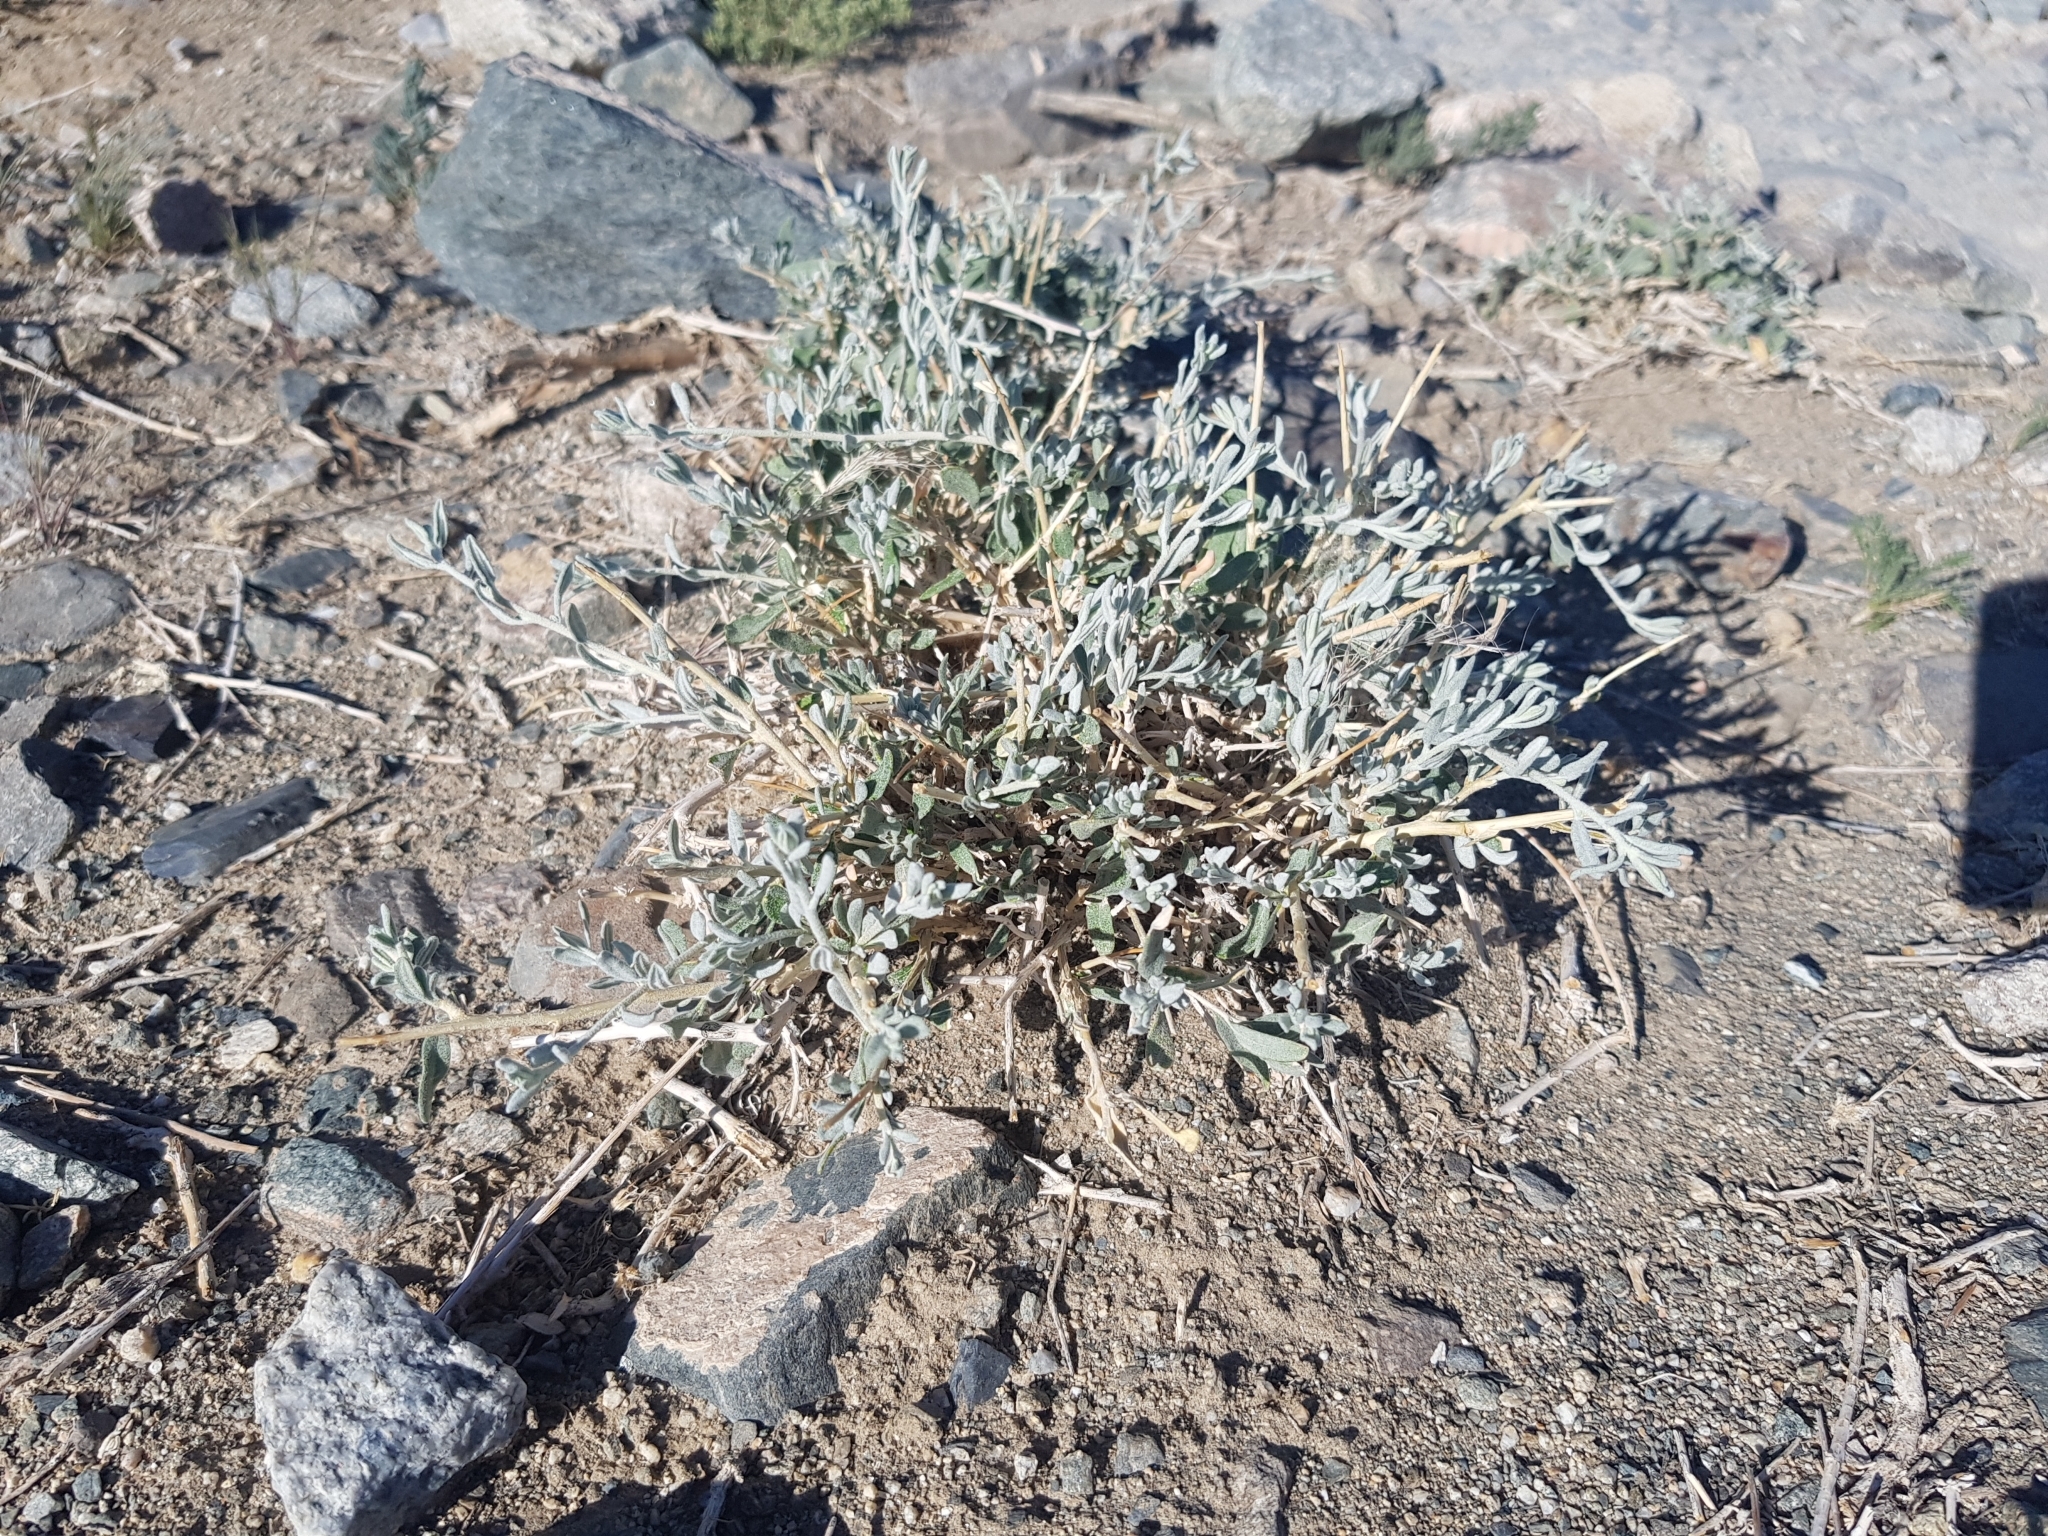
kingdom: Plantae
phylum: Tracheophyta
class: Magnoliopsida
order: Caryophyllales
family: Amaranthaceae
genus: Krascheninnikovia
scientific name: Krascheninnikovia ceratoides
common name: Pamirian winterfat
